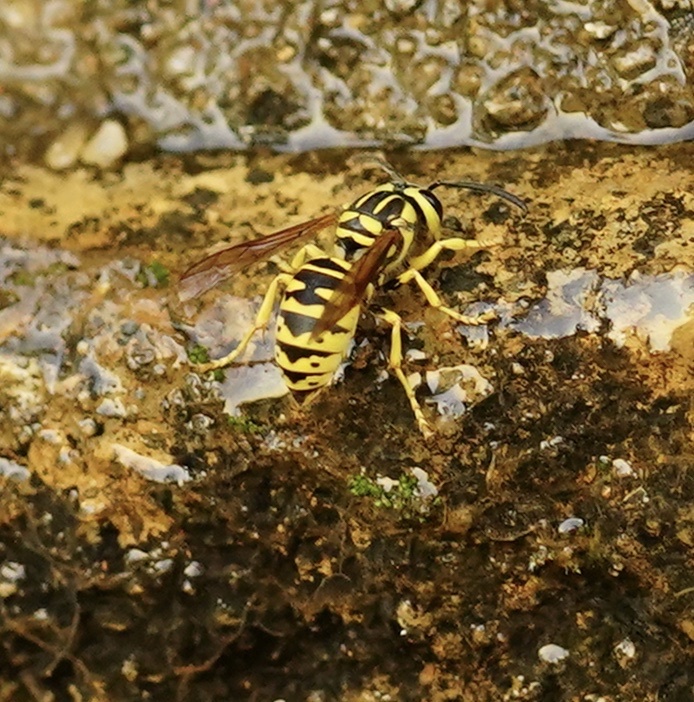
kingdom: Animalia
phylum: Arthropoda
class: Insecta
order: Hymenoptera
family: Vespidae
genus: Vespula
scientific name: Vespula sulphurea
